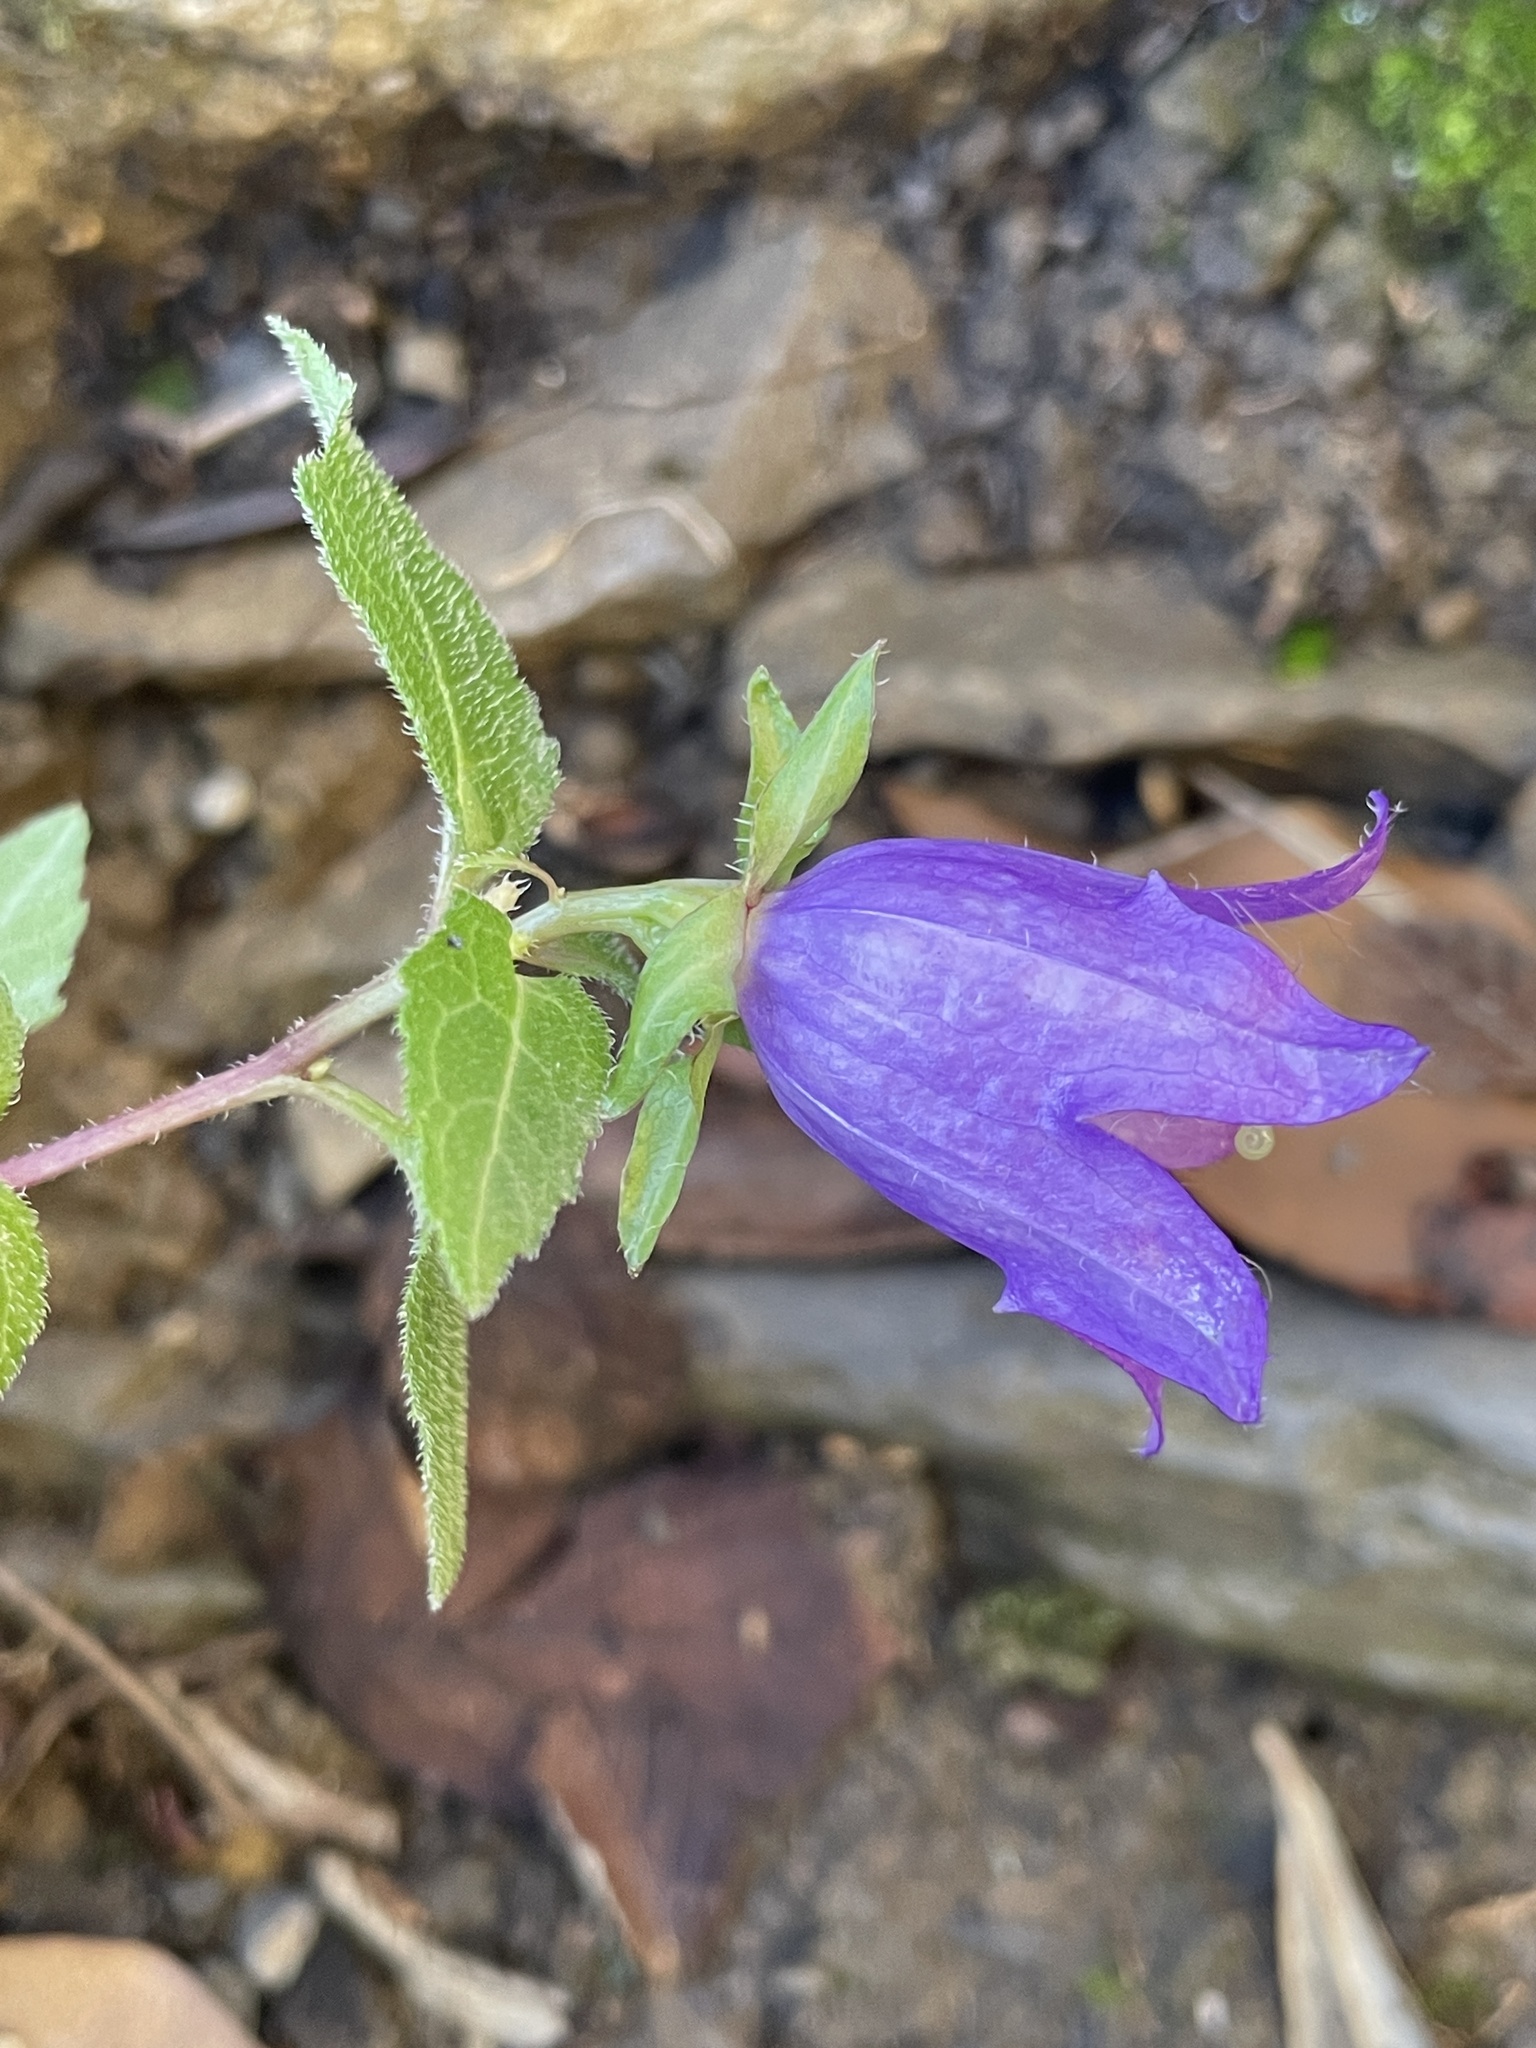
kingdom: Plantae
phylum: Tracheophyta
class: Magnoliopsida
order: Asterales
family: Campanulaceae
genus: Campanula
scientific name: Campanula trachelium
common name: Nettle-leaved bellflower
